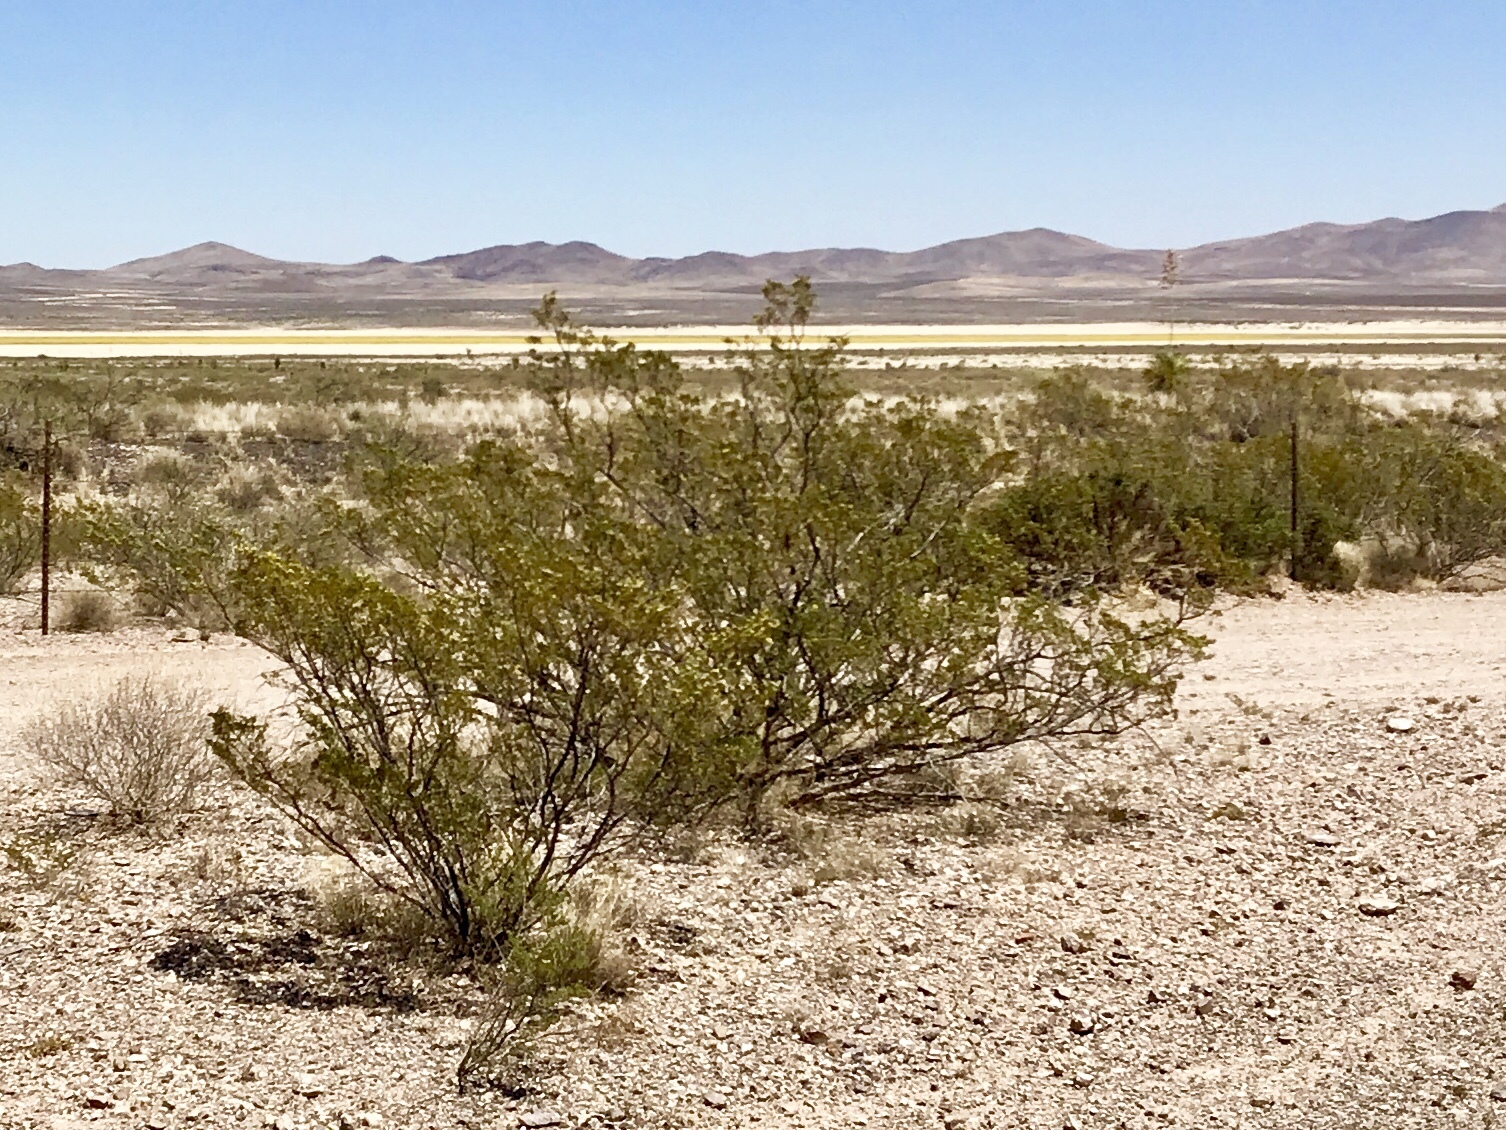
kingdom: Plantae
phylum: Tracheophyta
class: Magnoliopsida
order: Zygophyllales
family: Zygophyllaceae
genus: Larrea
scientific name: Larrea tridentata
